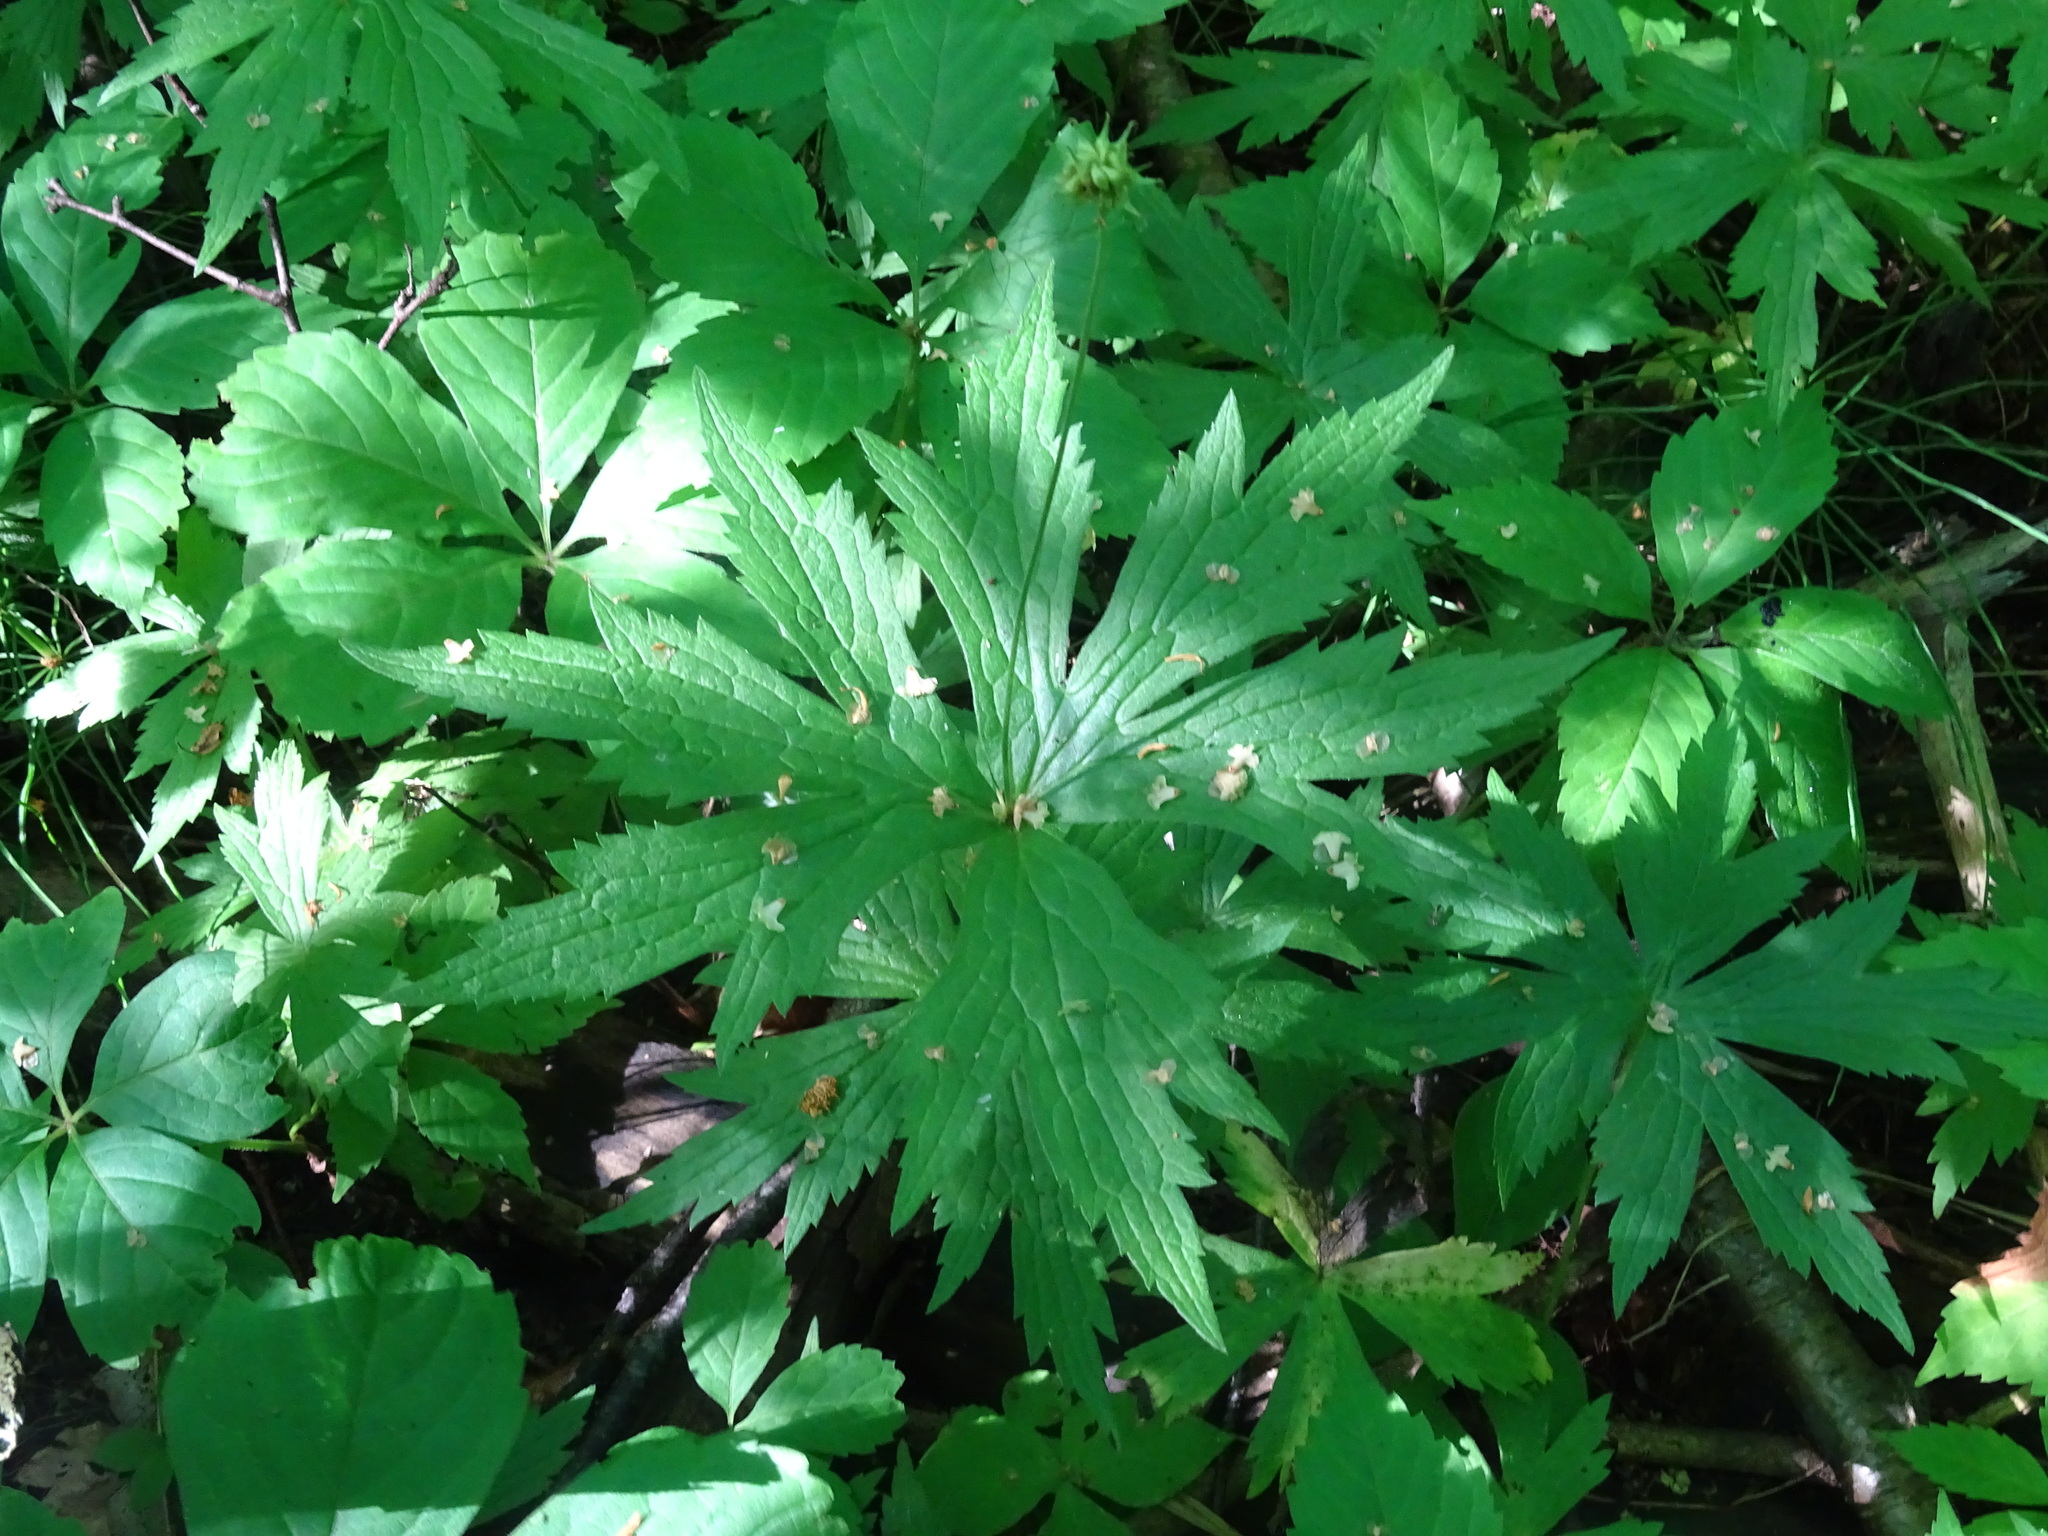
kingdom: Plantae
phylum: Tracheophyta
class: Magnoliopsida
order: Ranunculales
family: Ranunculaceae
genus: Anemonastrum
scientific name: Anemonastrum canadense
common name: Canada anemone
